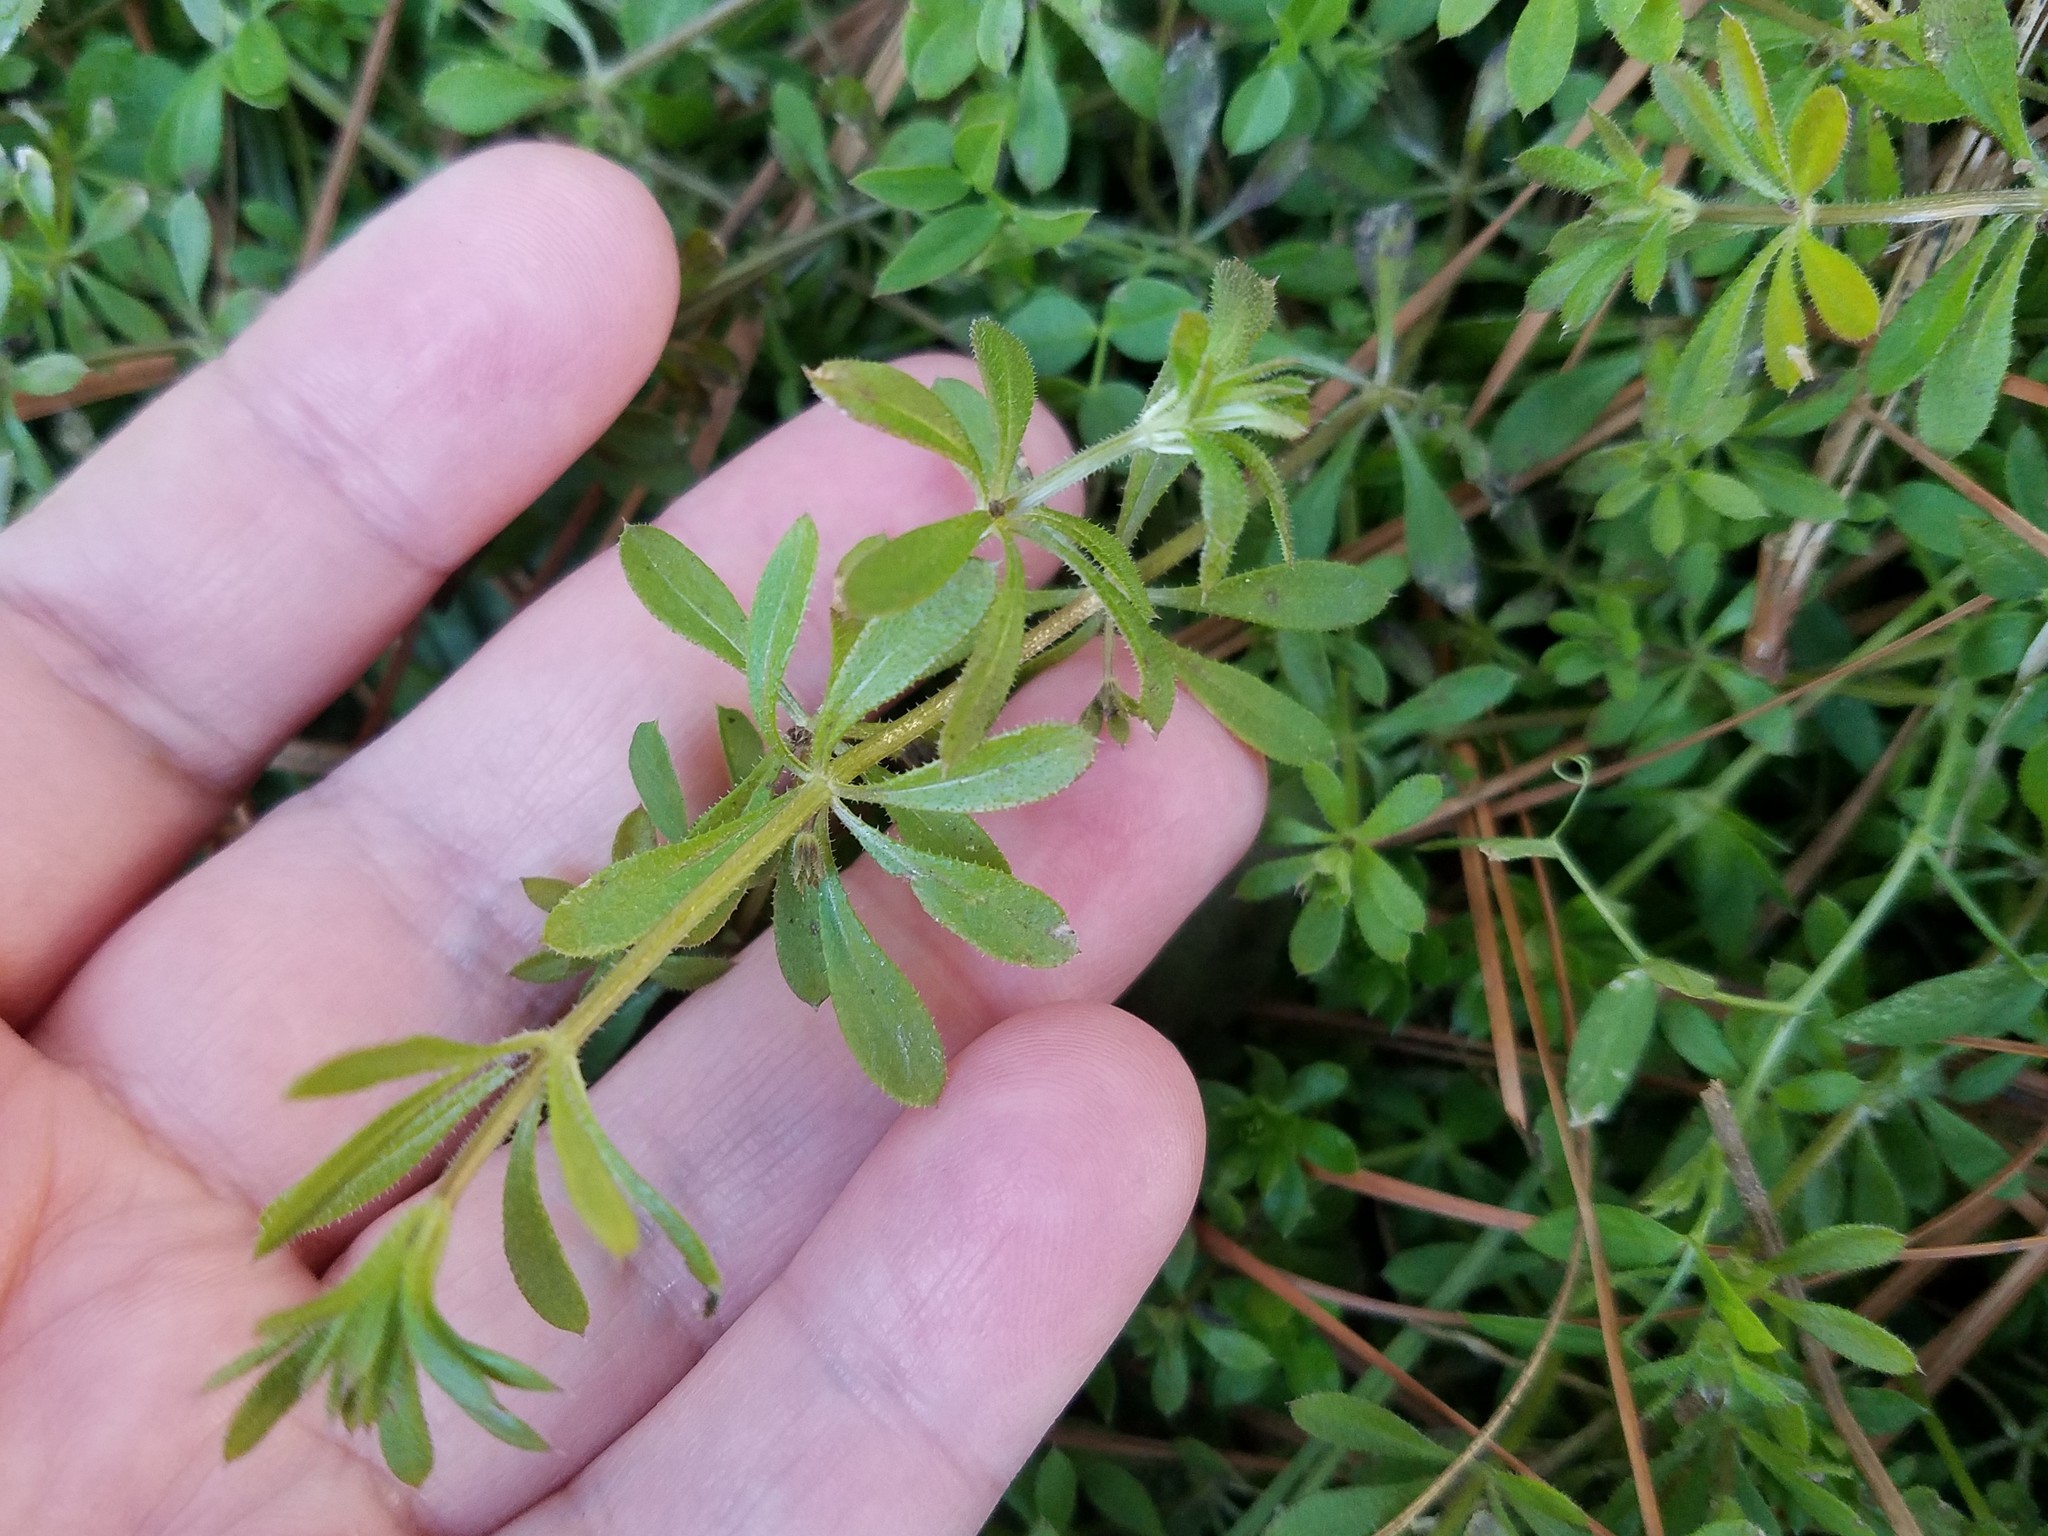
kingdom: Plantae
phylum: Tracheophyta
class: Magnoliopsida
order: Gentianales
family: Rubiaceae
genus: Galium
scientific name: Galium aparine
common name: Cleavers
